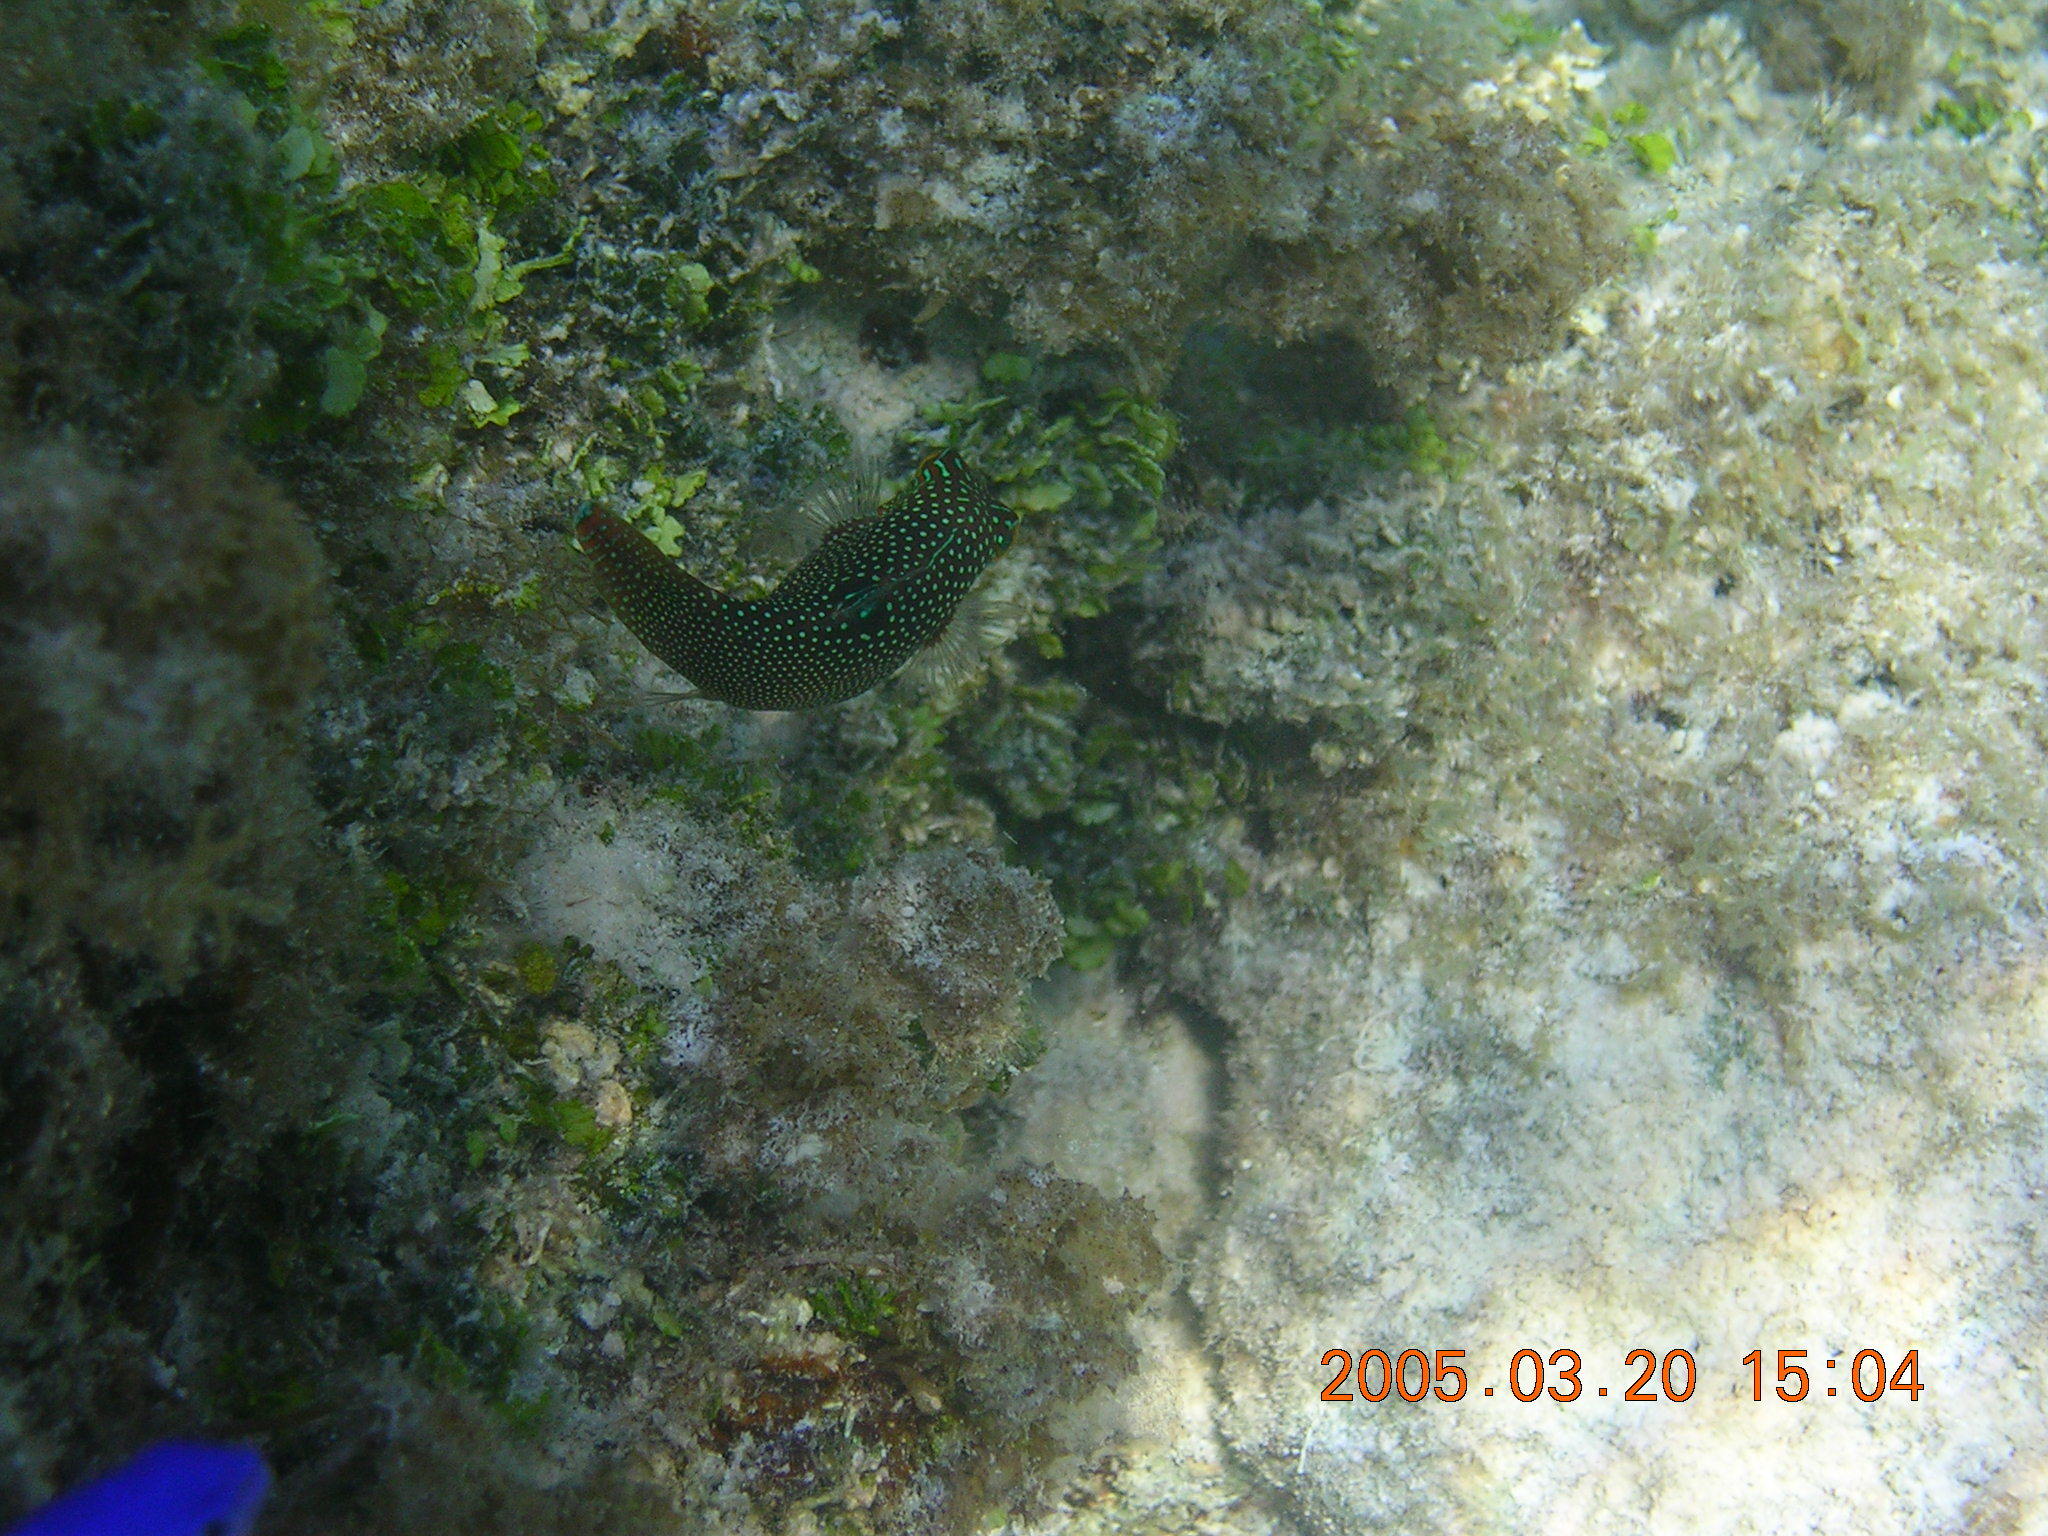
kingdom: Animalia
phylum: Chordata
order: Tetraodontiformes
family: Tetraodontidae
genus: Canthigaster
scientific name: Canthigaster solandri
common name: False-eye toby
